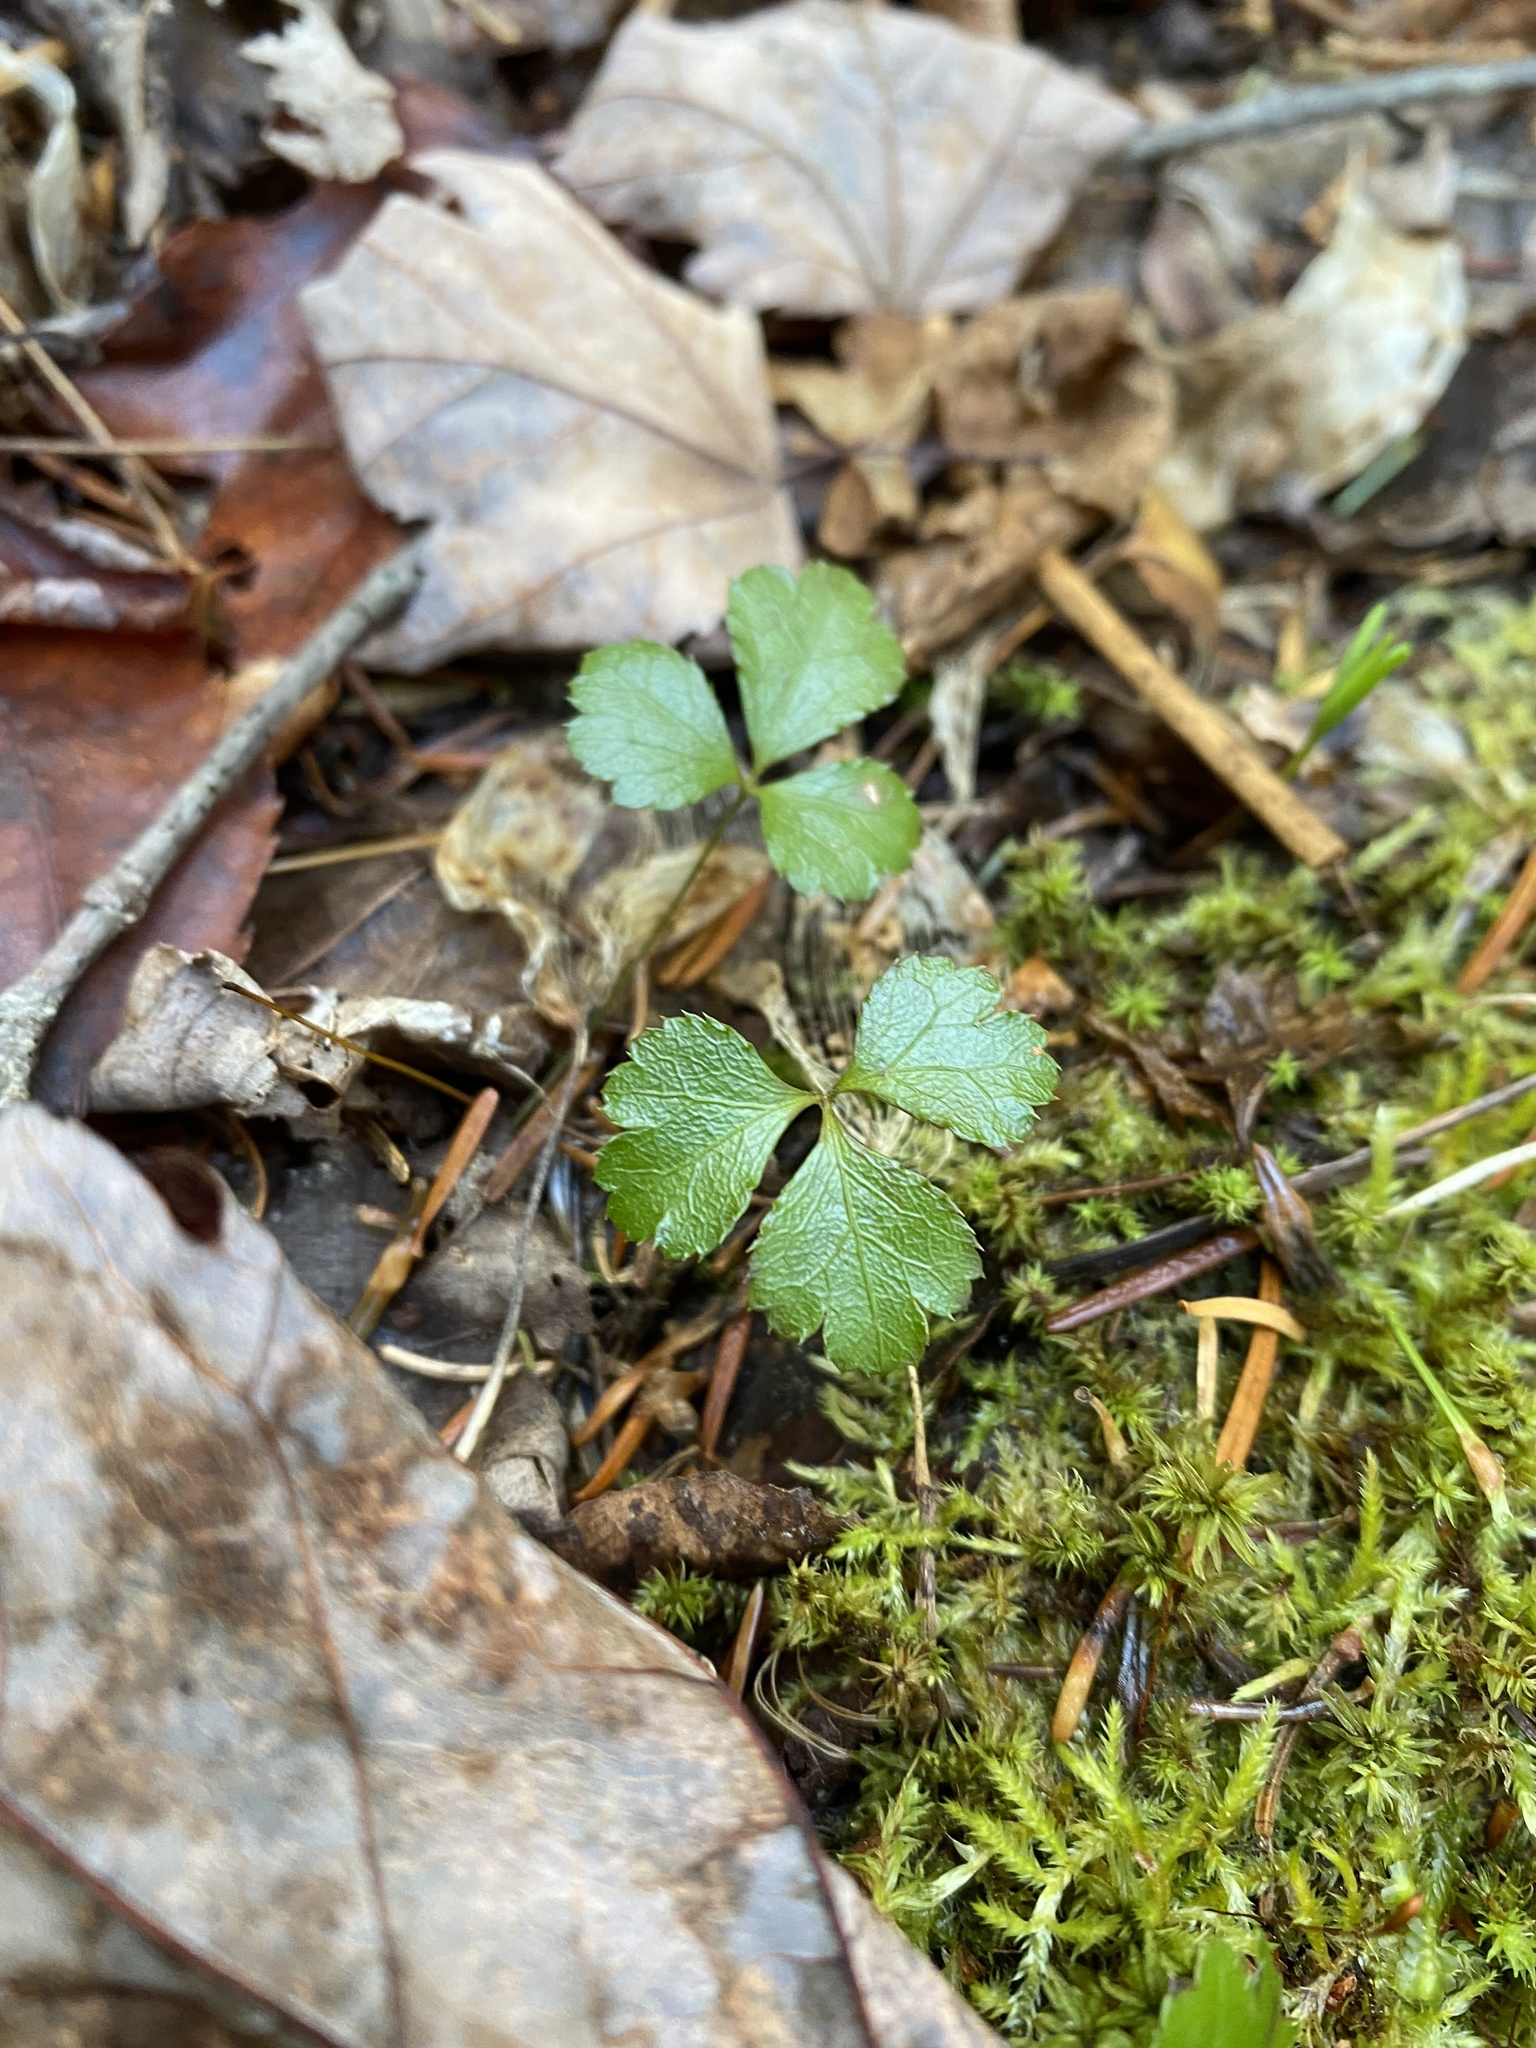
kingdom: Plantae
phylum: Tracheophyta
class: Magnoliopsida
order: Ranunculales
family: Ranunculaceae
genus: Coptis
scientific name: Coptis trifolia
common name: Canker-root
